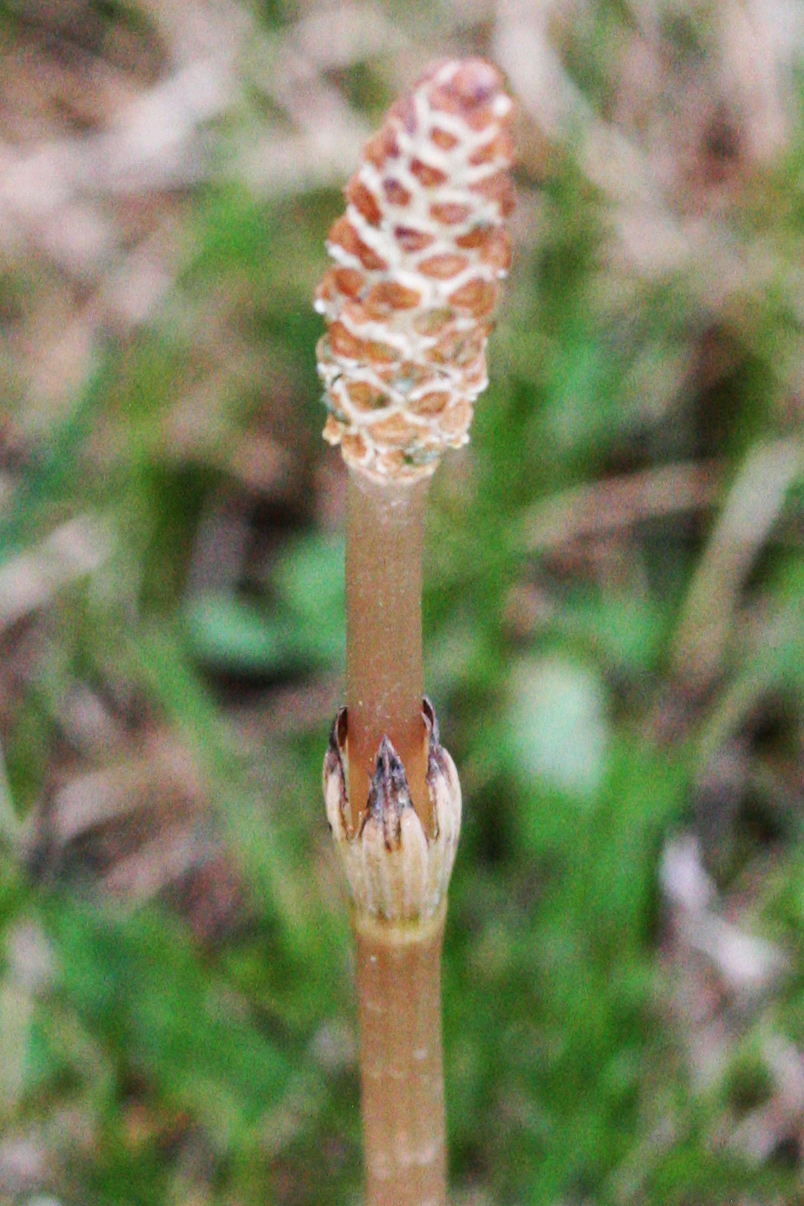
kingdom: Plantae
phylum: Tracheophyta
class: Polypodiopsida
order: Equisetales
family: Equisetaceae
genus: Equisetum
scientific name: Equisetum arvense
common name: Field horsetail
